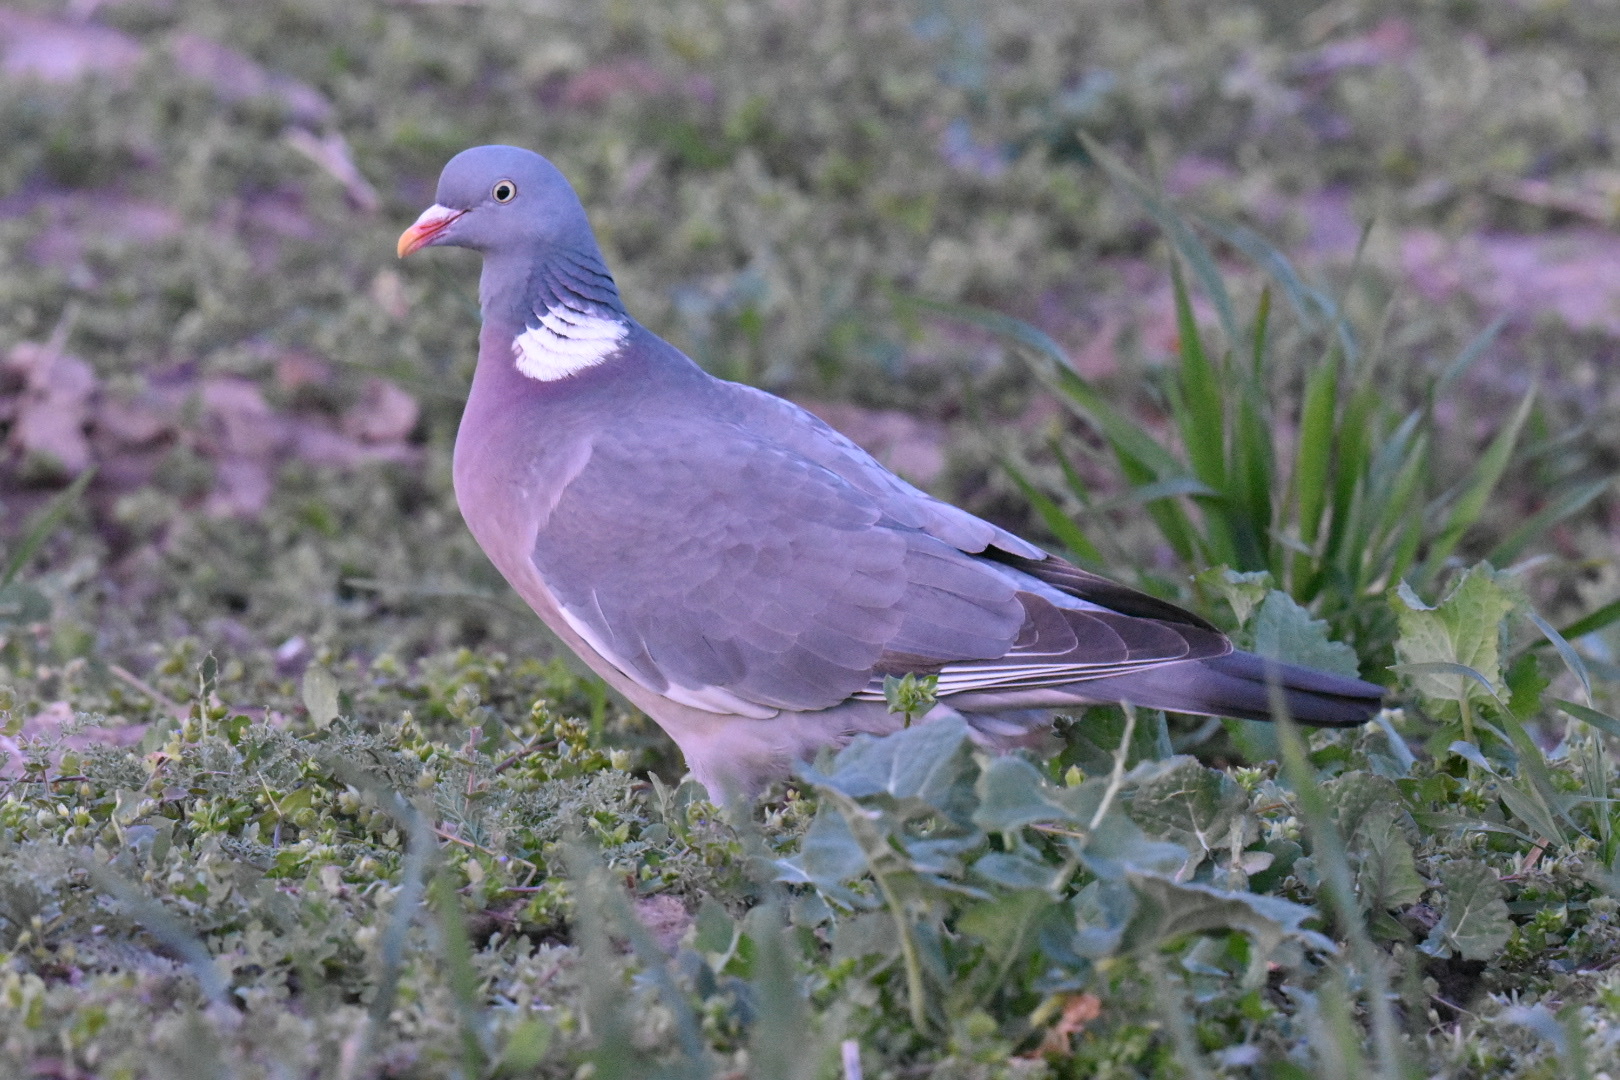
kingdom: Animalia
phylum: Chordata
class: Aves
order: Columbiformes
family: Columbidae
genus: Columba
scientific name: Columba palumbus
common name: Common wood pigeon
